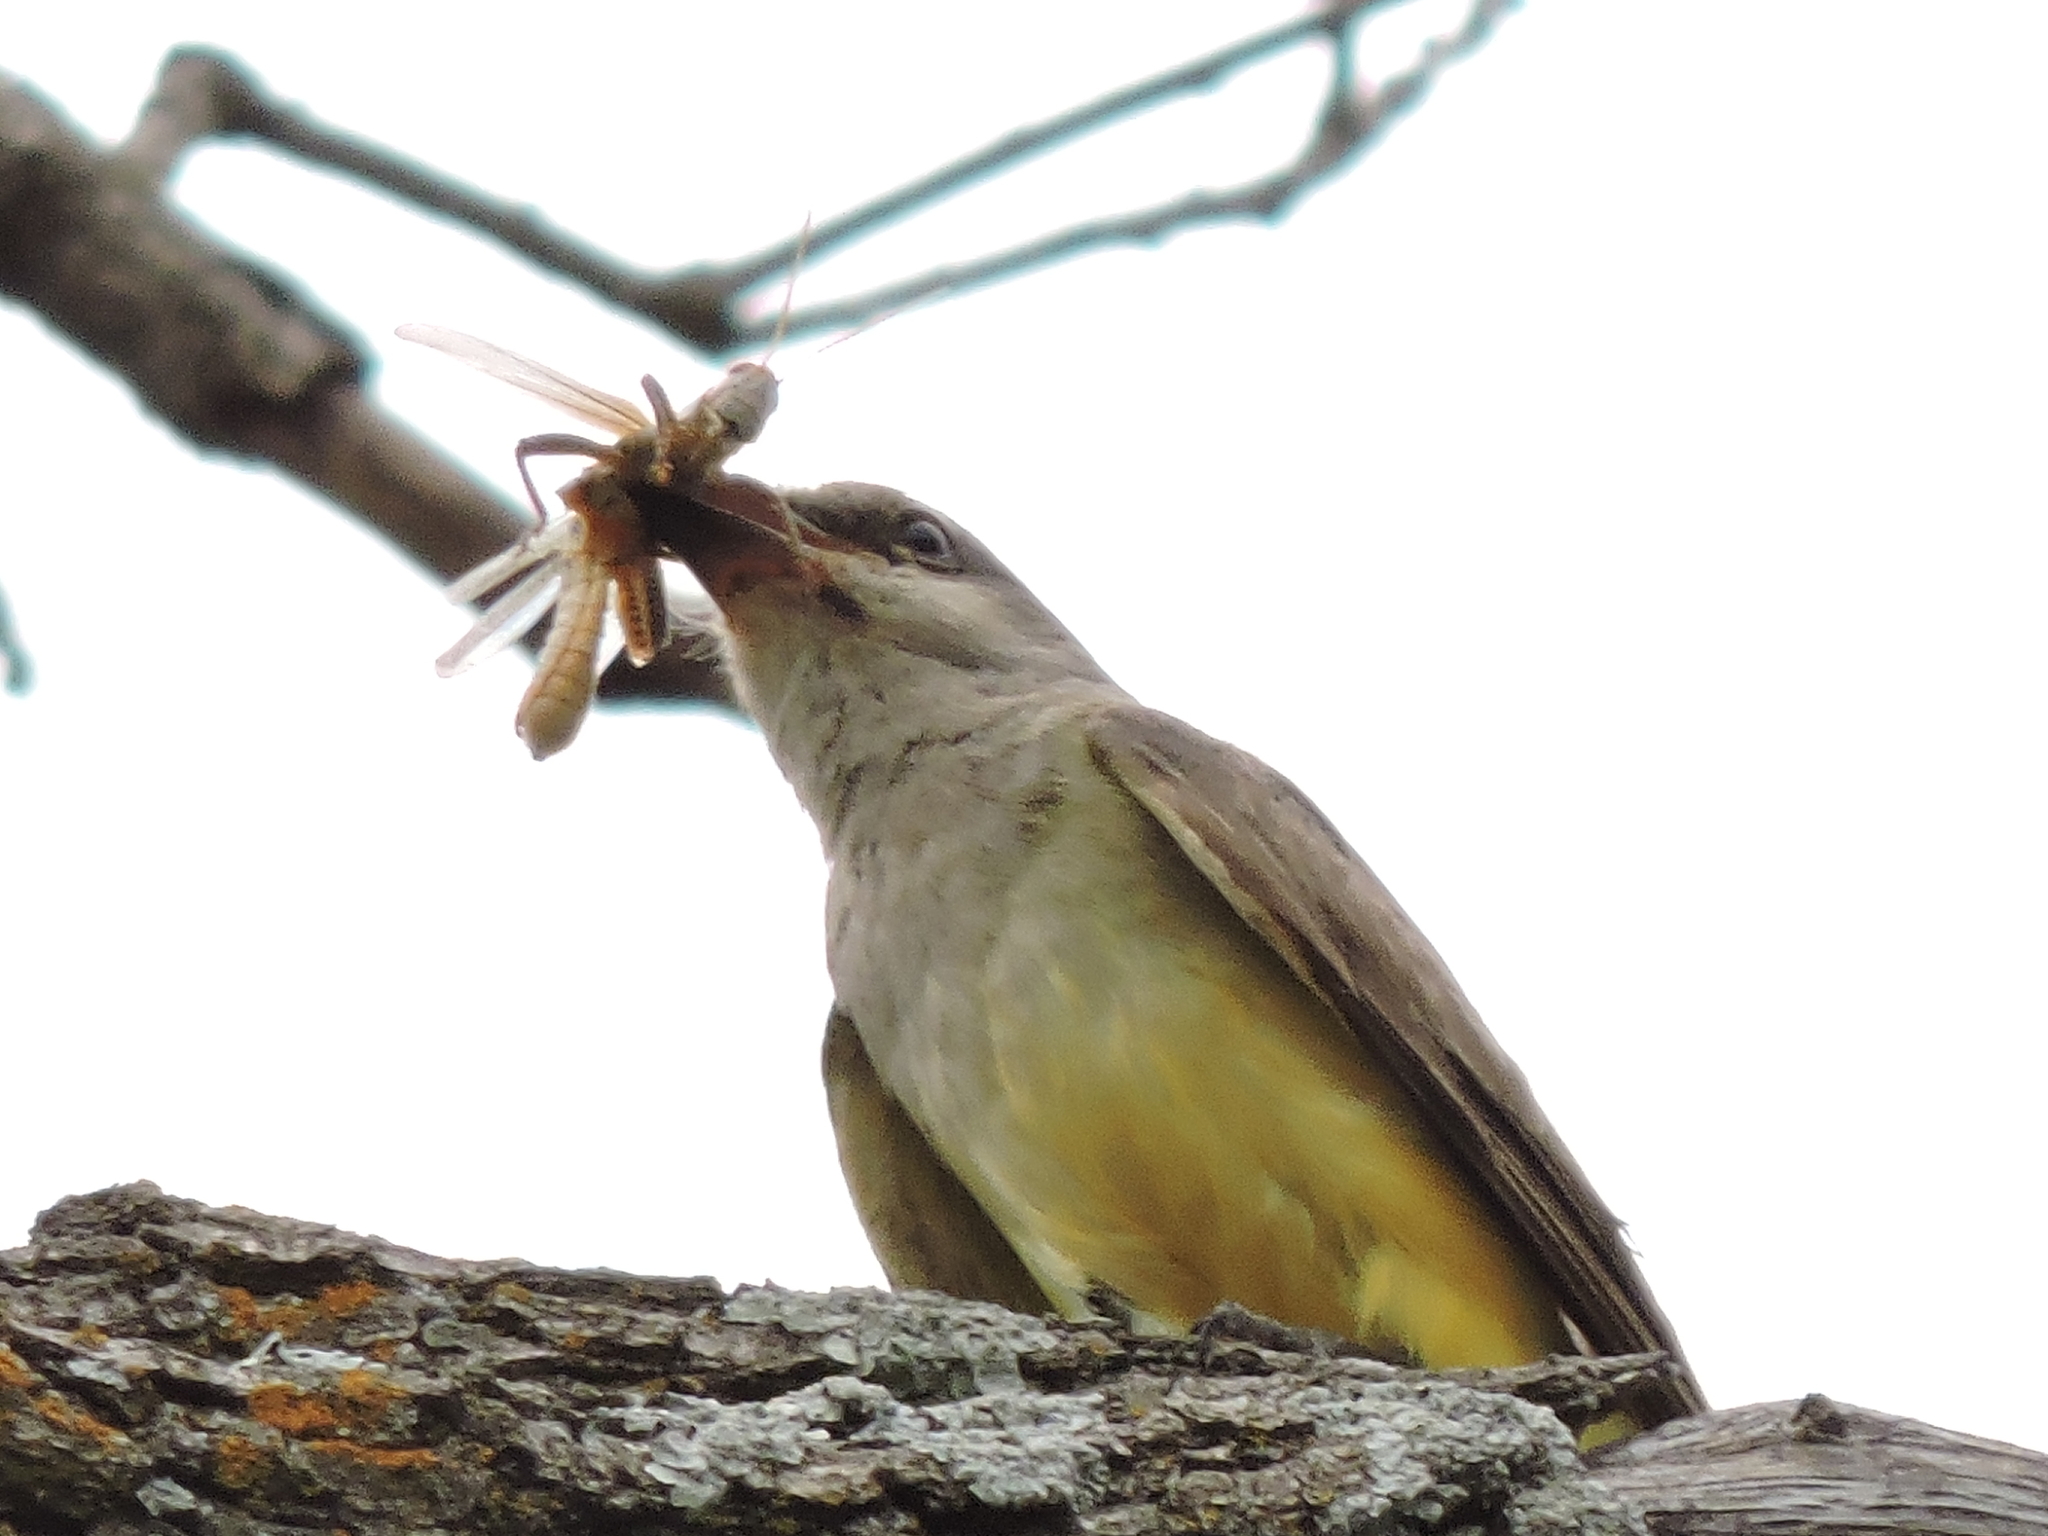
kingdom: Animalia
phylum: Chordata
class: Aves
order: Passeriformes
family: Tyrannidae
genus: Tyrannus
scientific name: Tyrannus verticalis
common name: Western kingbird
